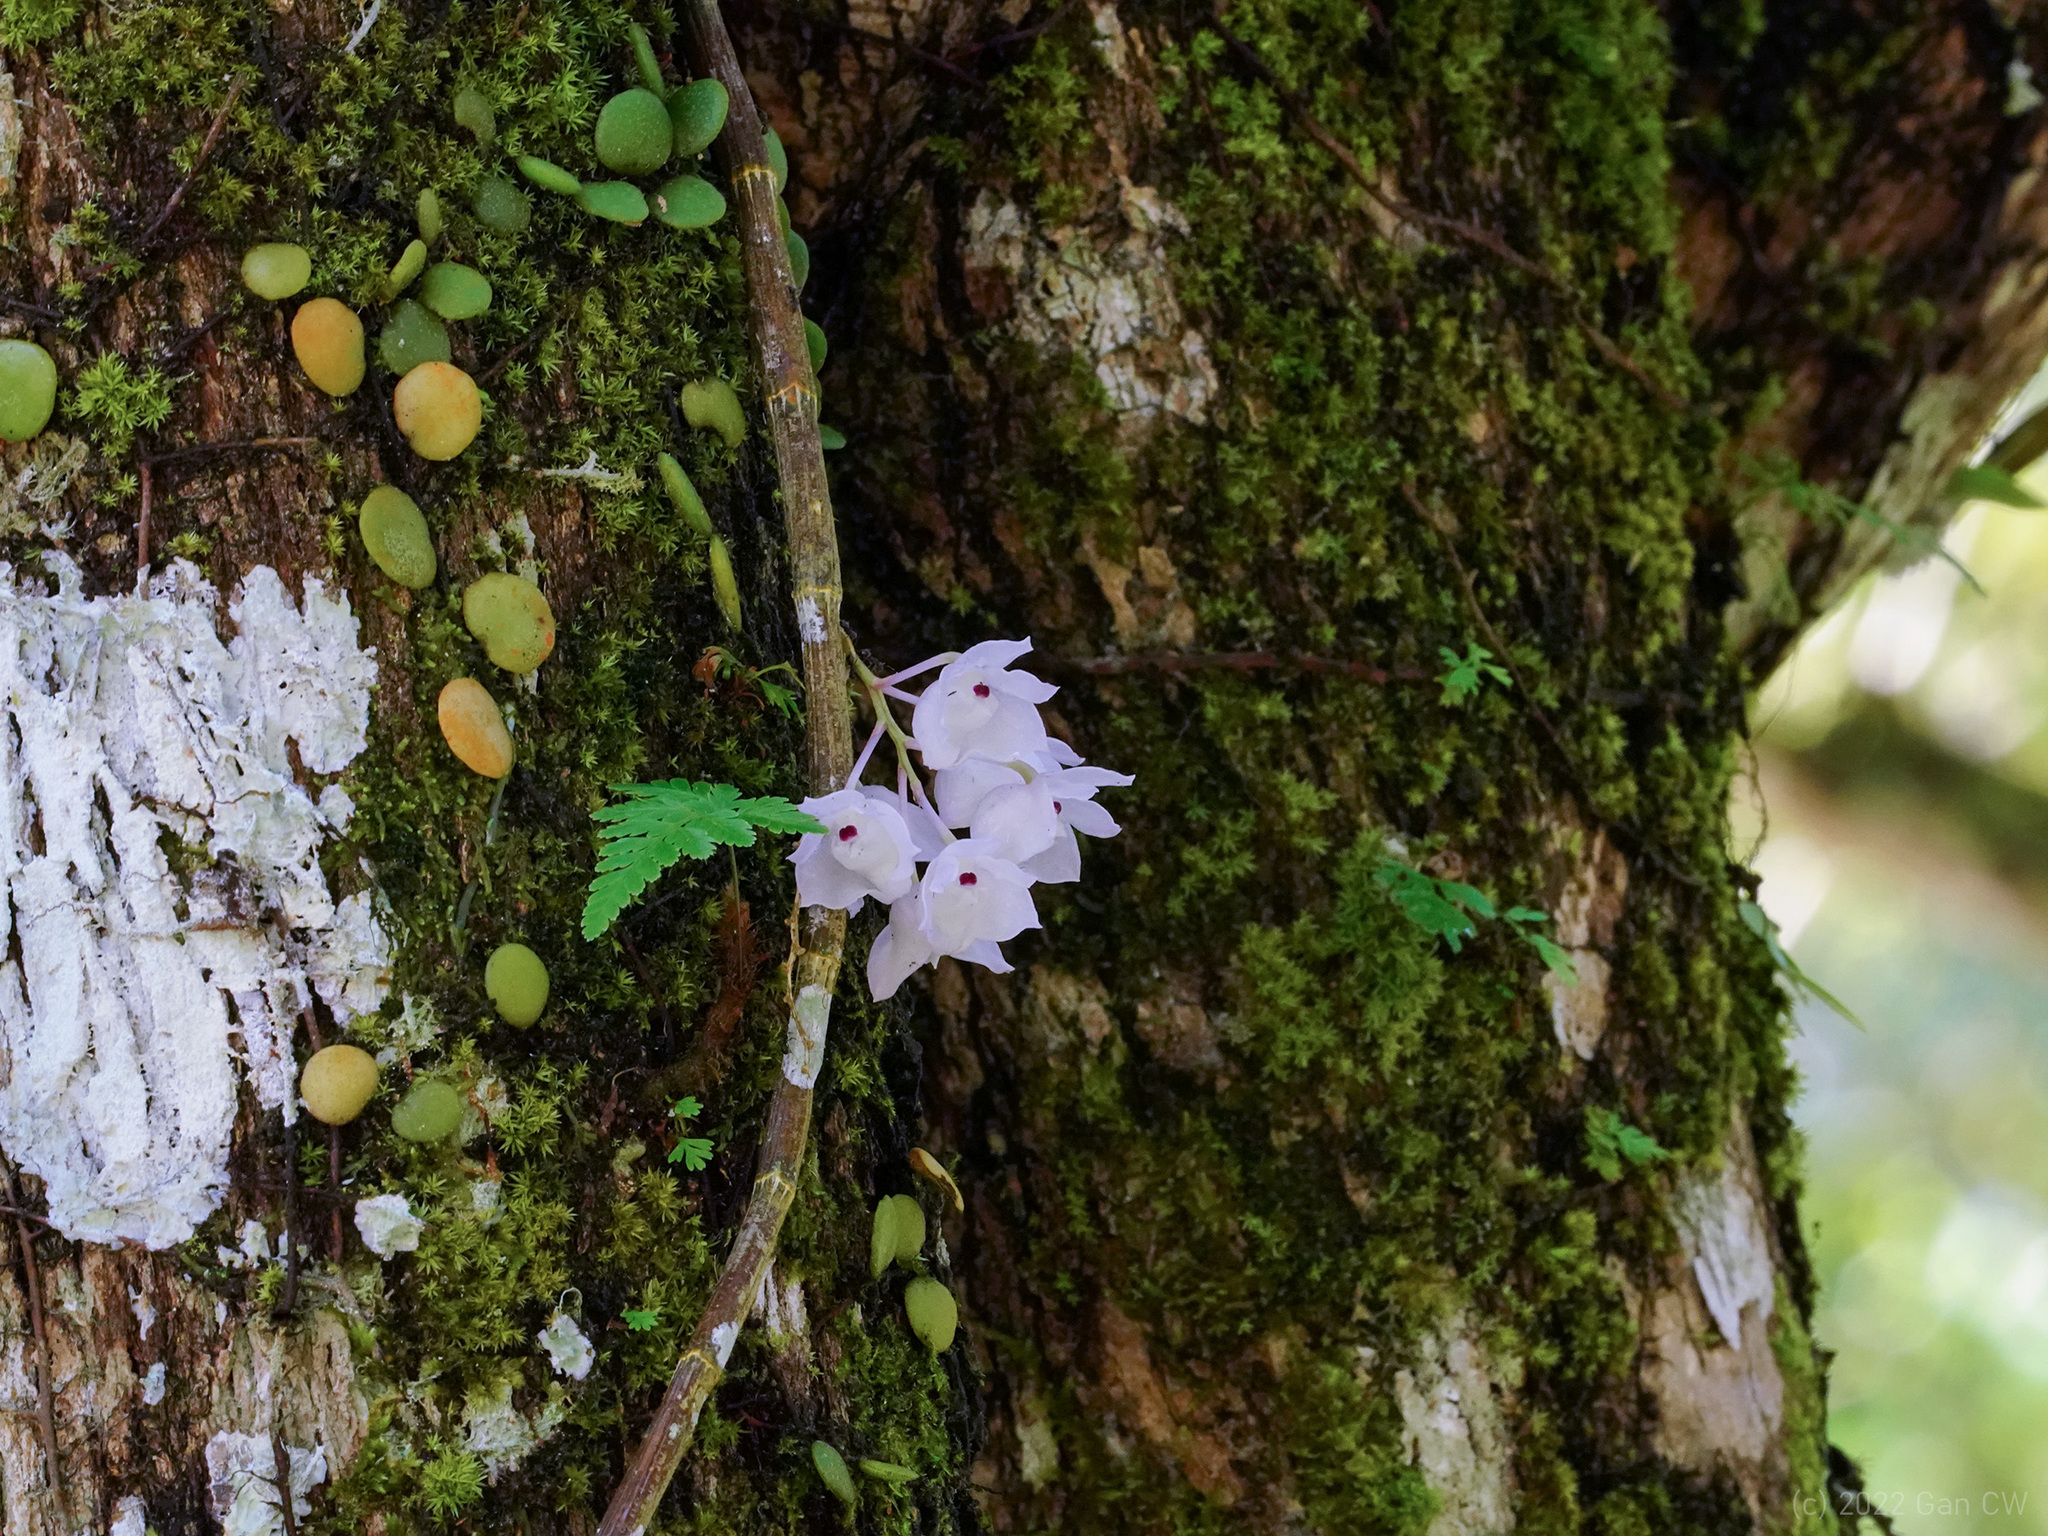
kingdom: Plantae
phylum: Tracheophyta
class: Liliopsida
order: Asparagales
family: Orchidaceae
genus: Dendrobium
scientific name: Dendrobium linguella
